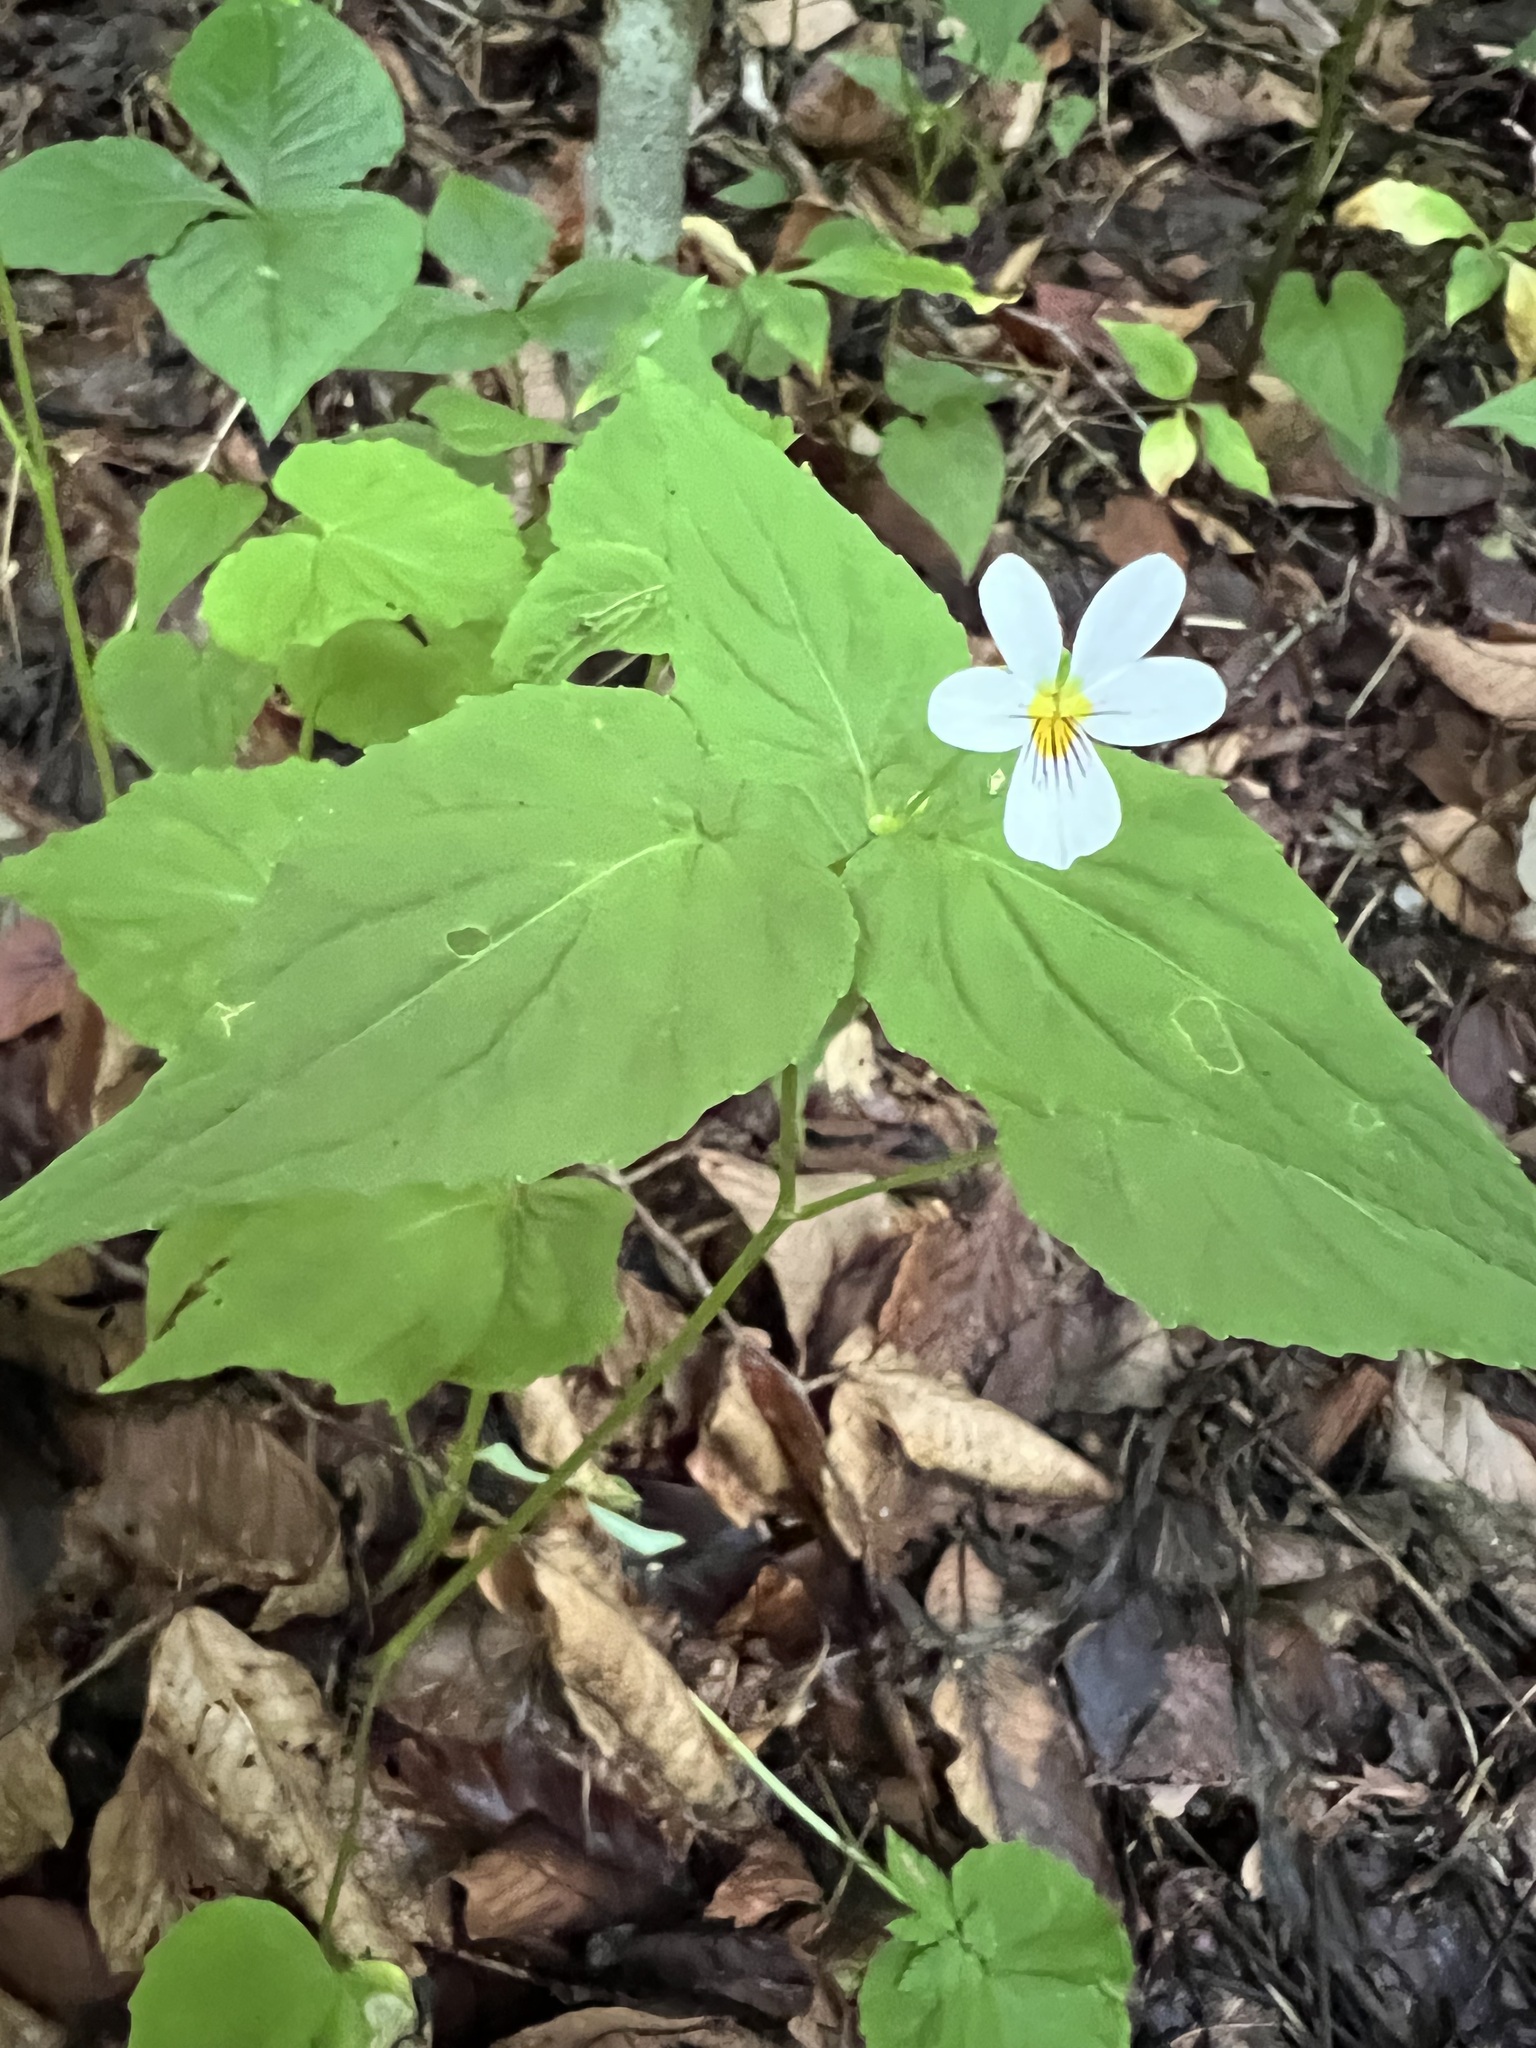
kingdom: Plantae
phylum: Tracheophyta
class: Magnoliopsida
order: Malpighiales
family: Violaceae
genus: Viola
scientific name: Viola canadensis
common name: Canada violet
